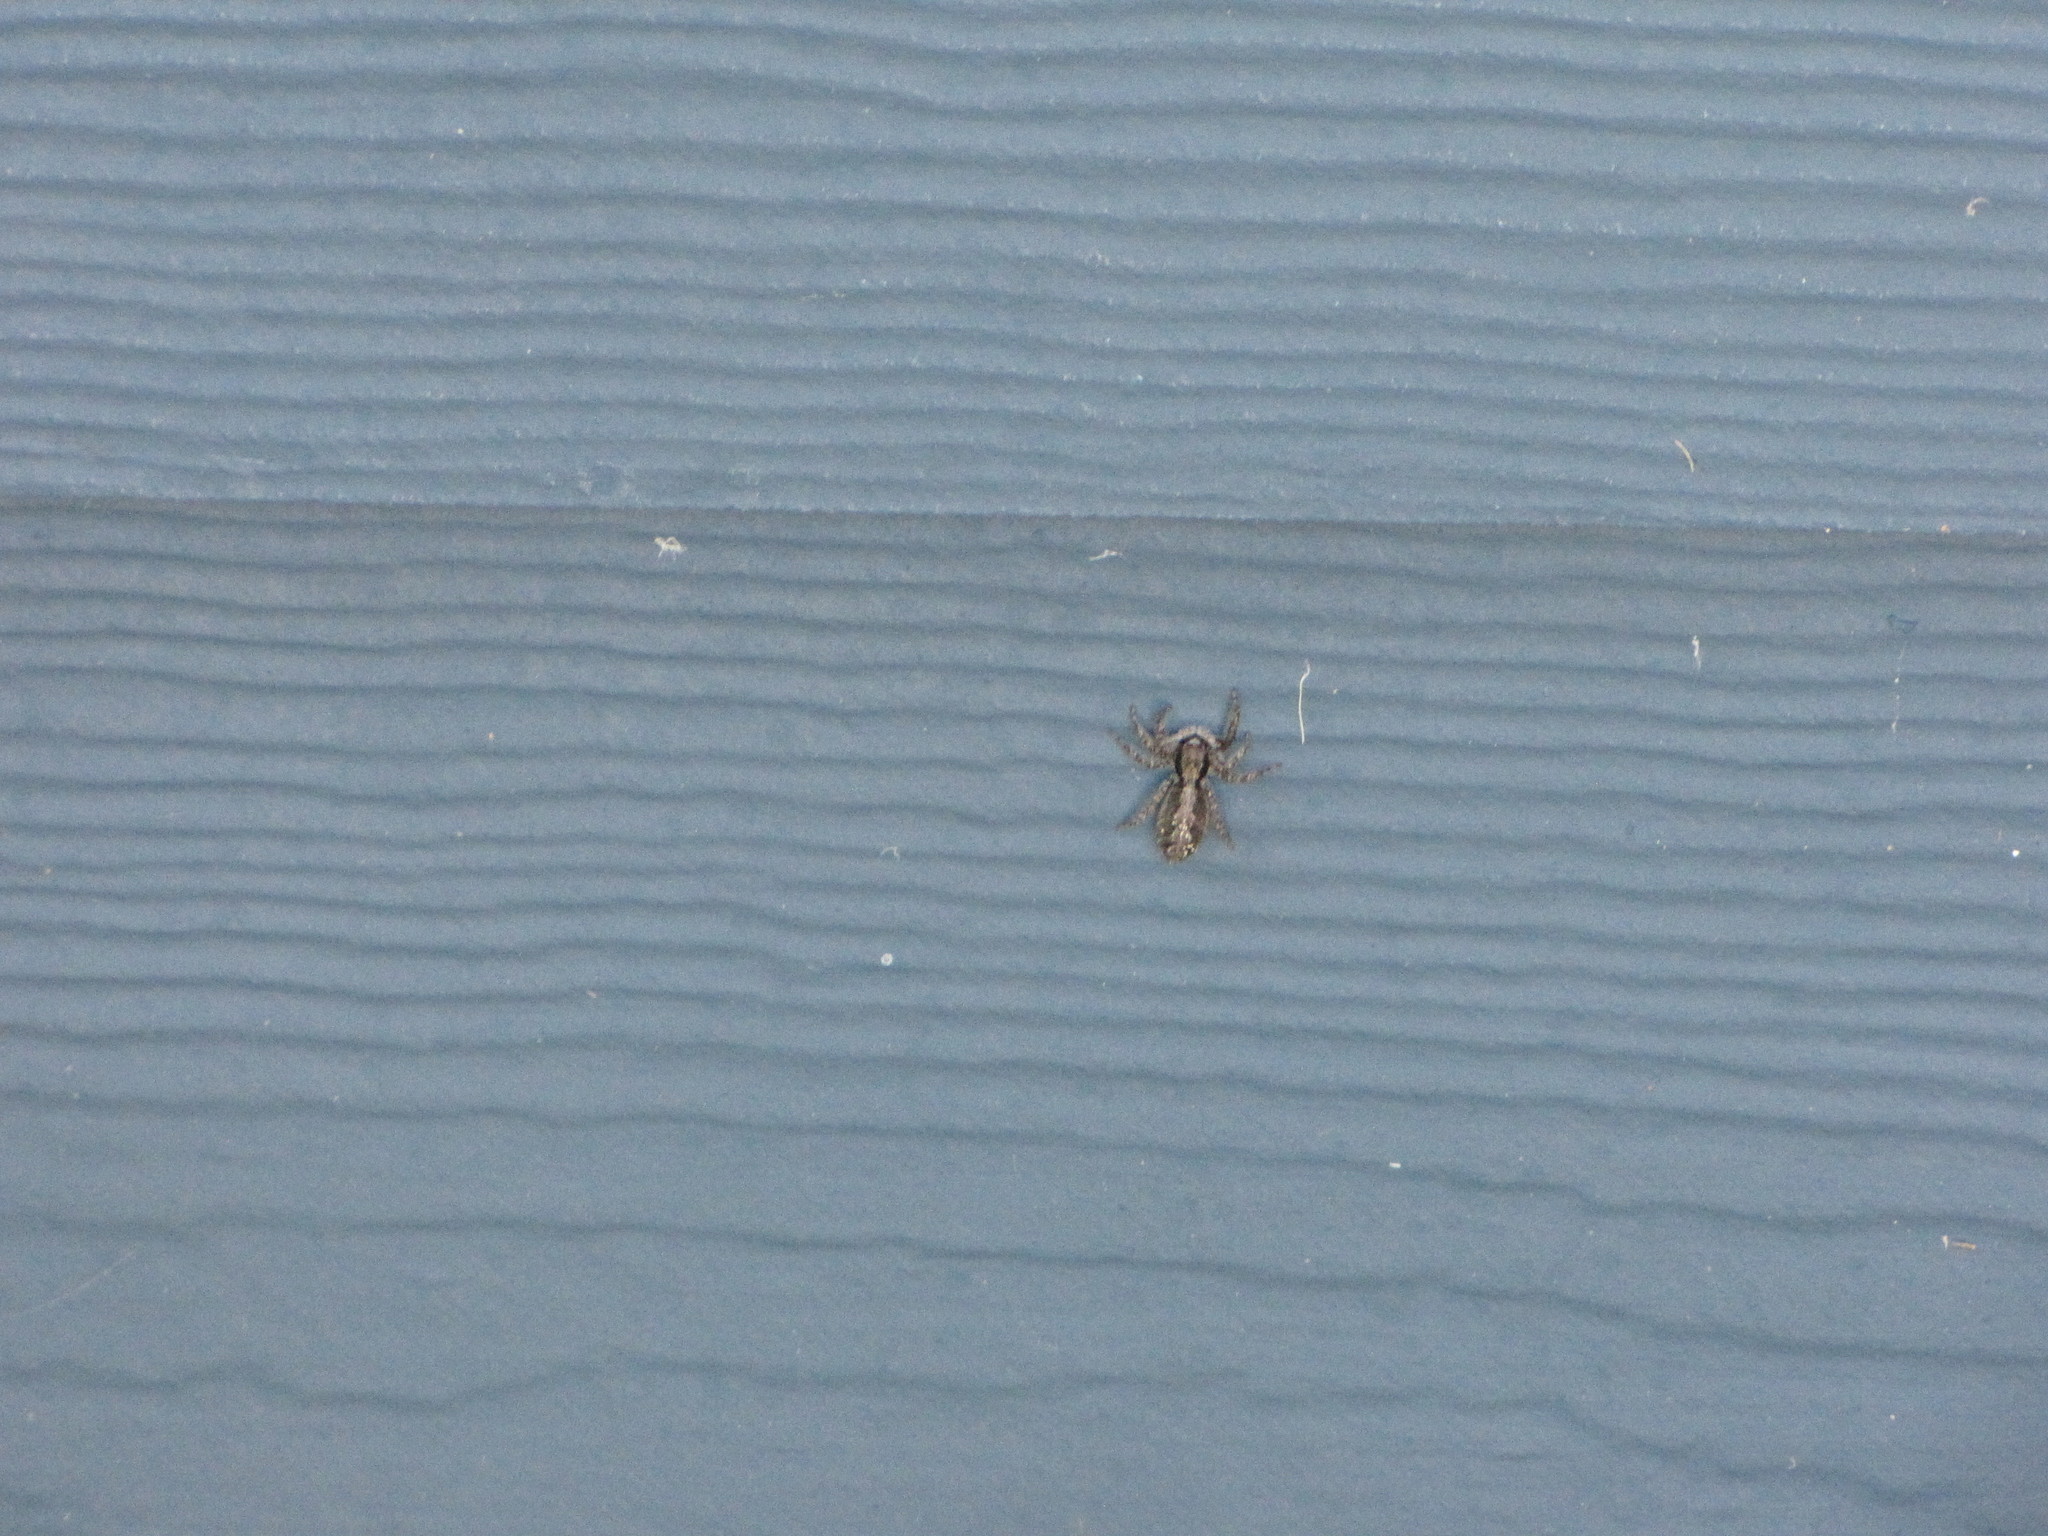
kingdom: Animalia
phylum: Arthropoda
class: Arachnida
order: Araneae
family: Salticidae
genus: Platycryptus
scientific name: Platycryptus californicus
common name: Jumping spiders
